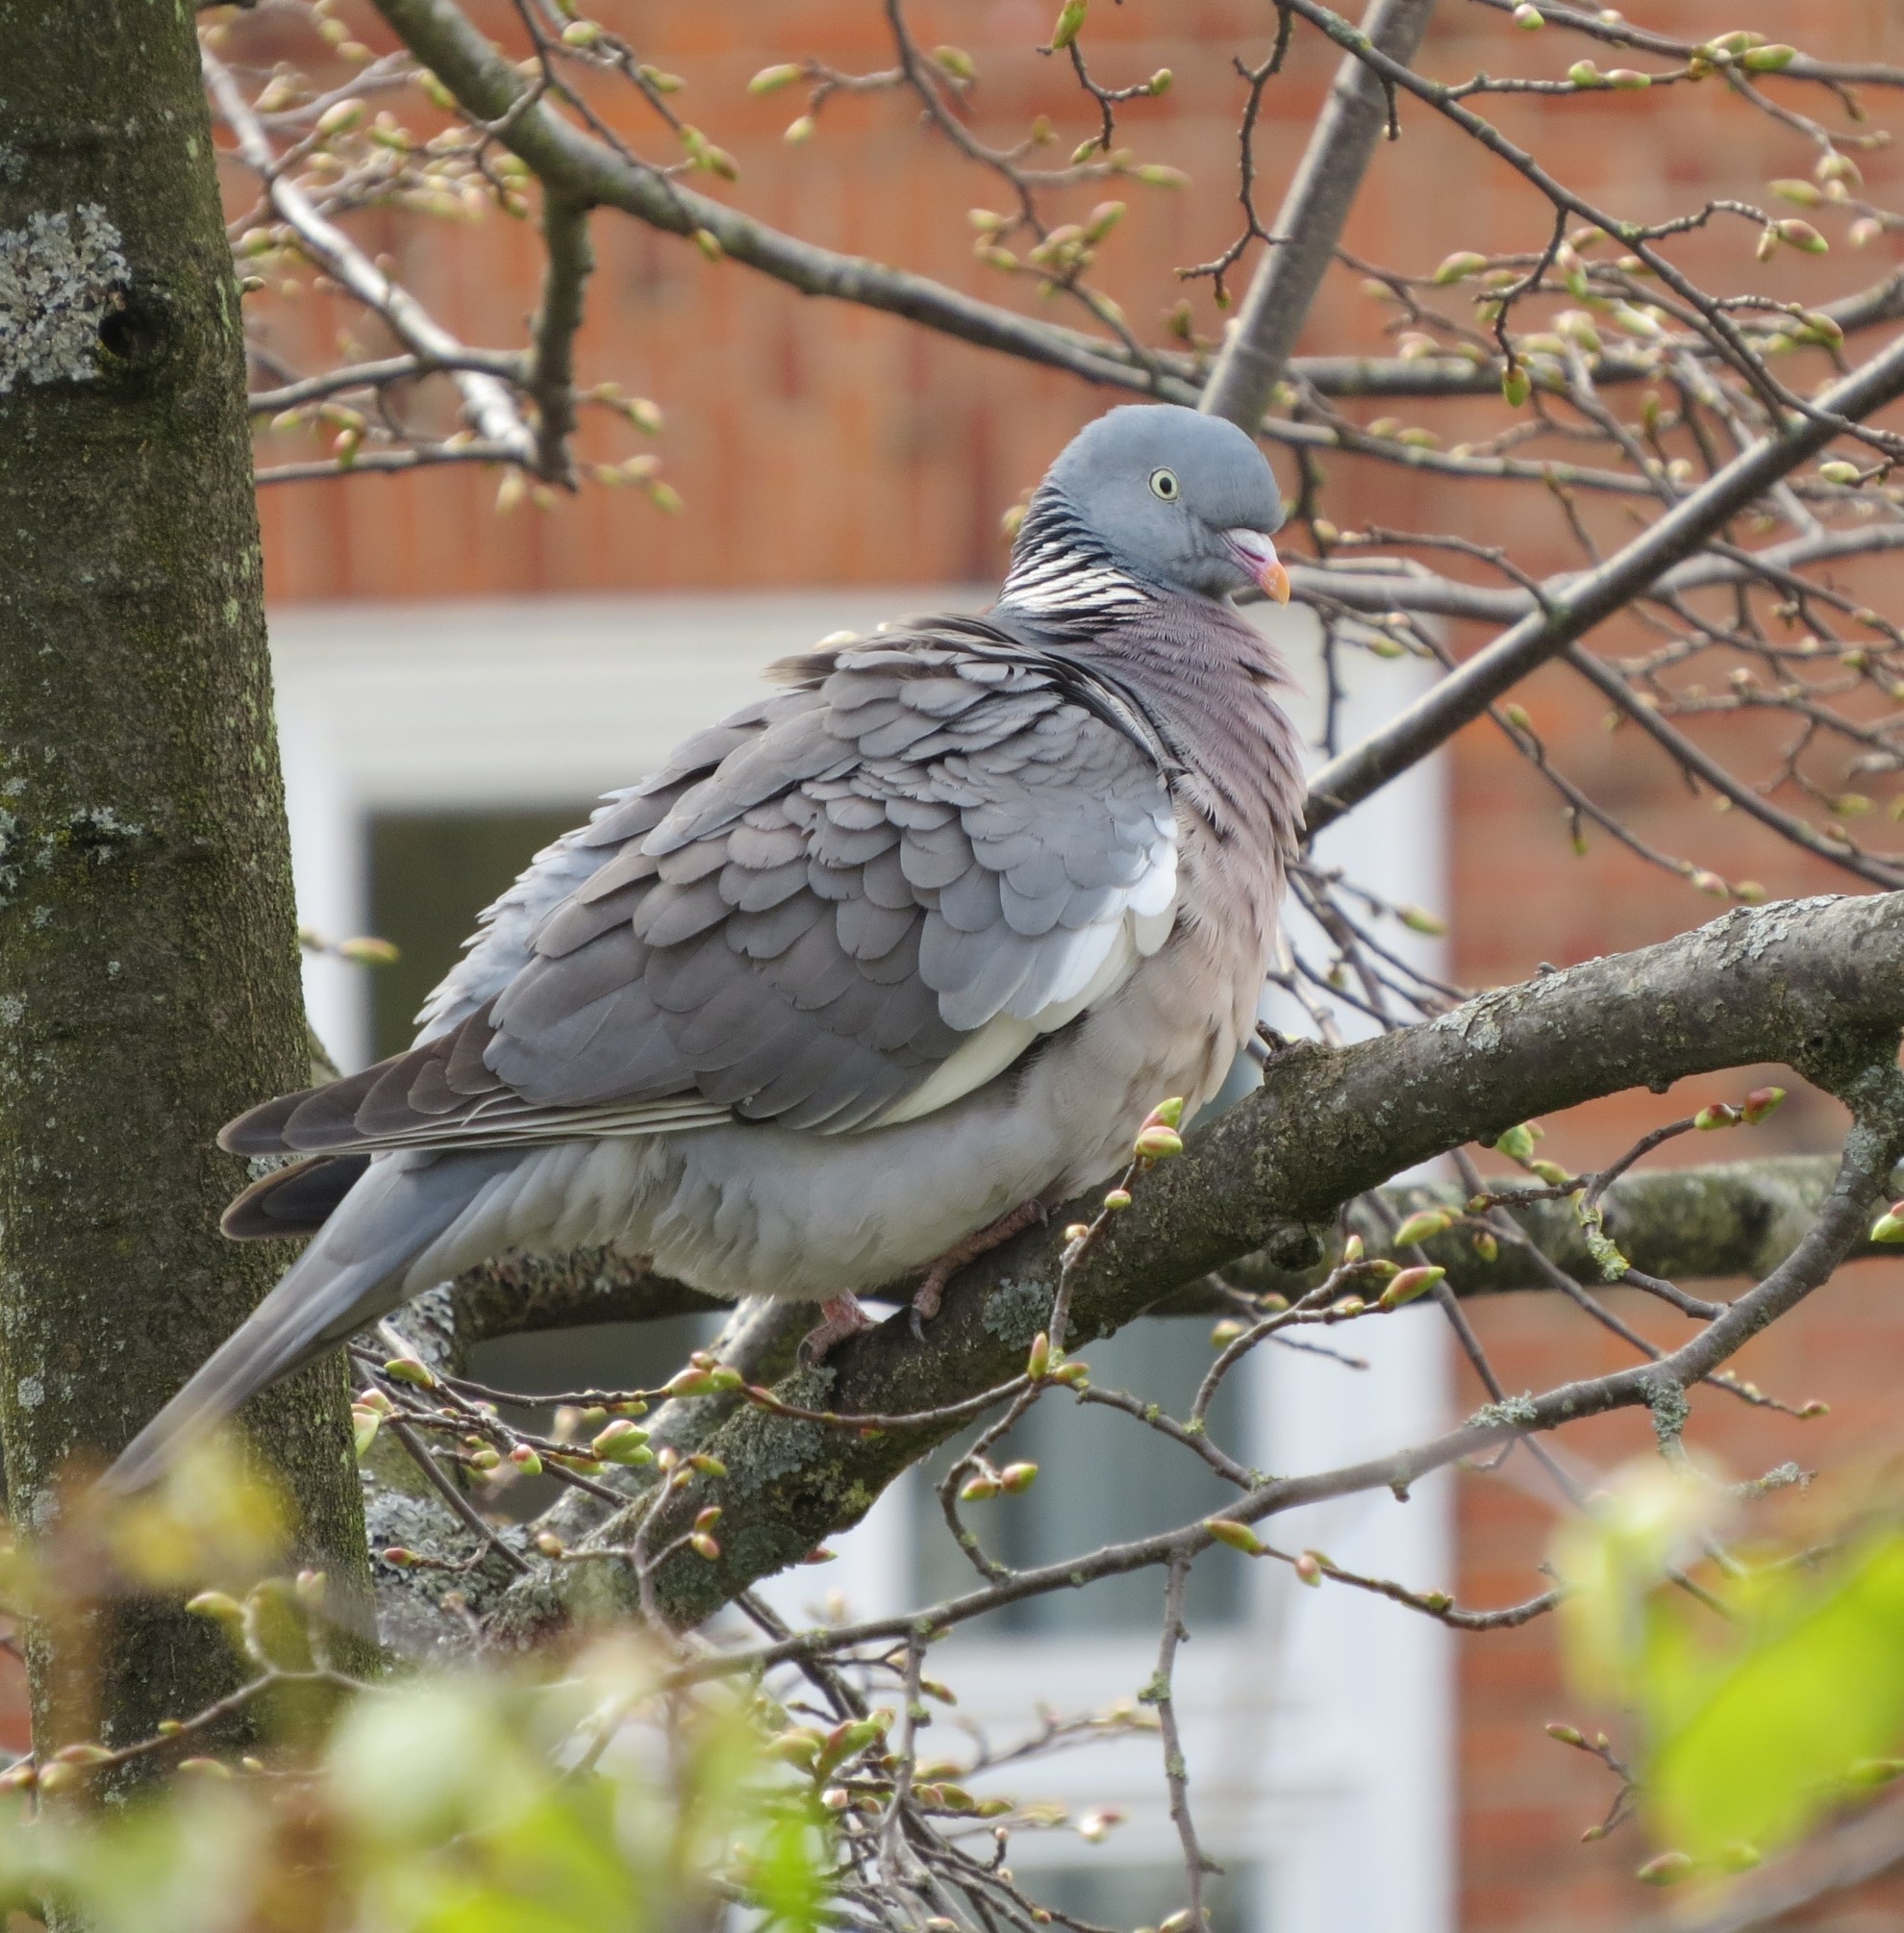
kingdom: Animalia
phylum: Chordata
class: Aves
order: Columbiformes
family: Columbidae
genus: Columba
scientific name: Columba palumbus
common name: Common wood pigeon
